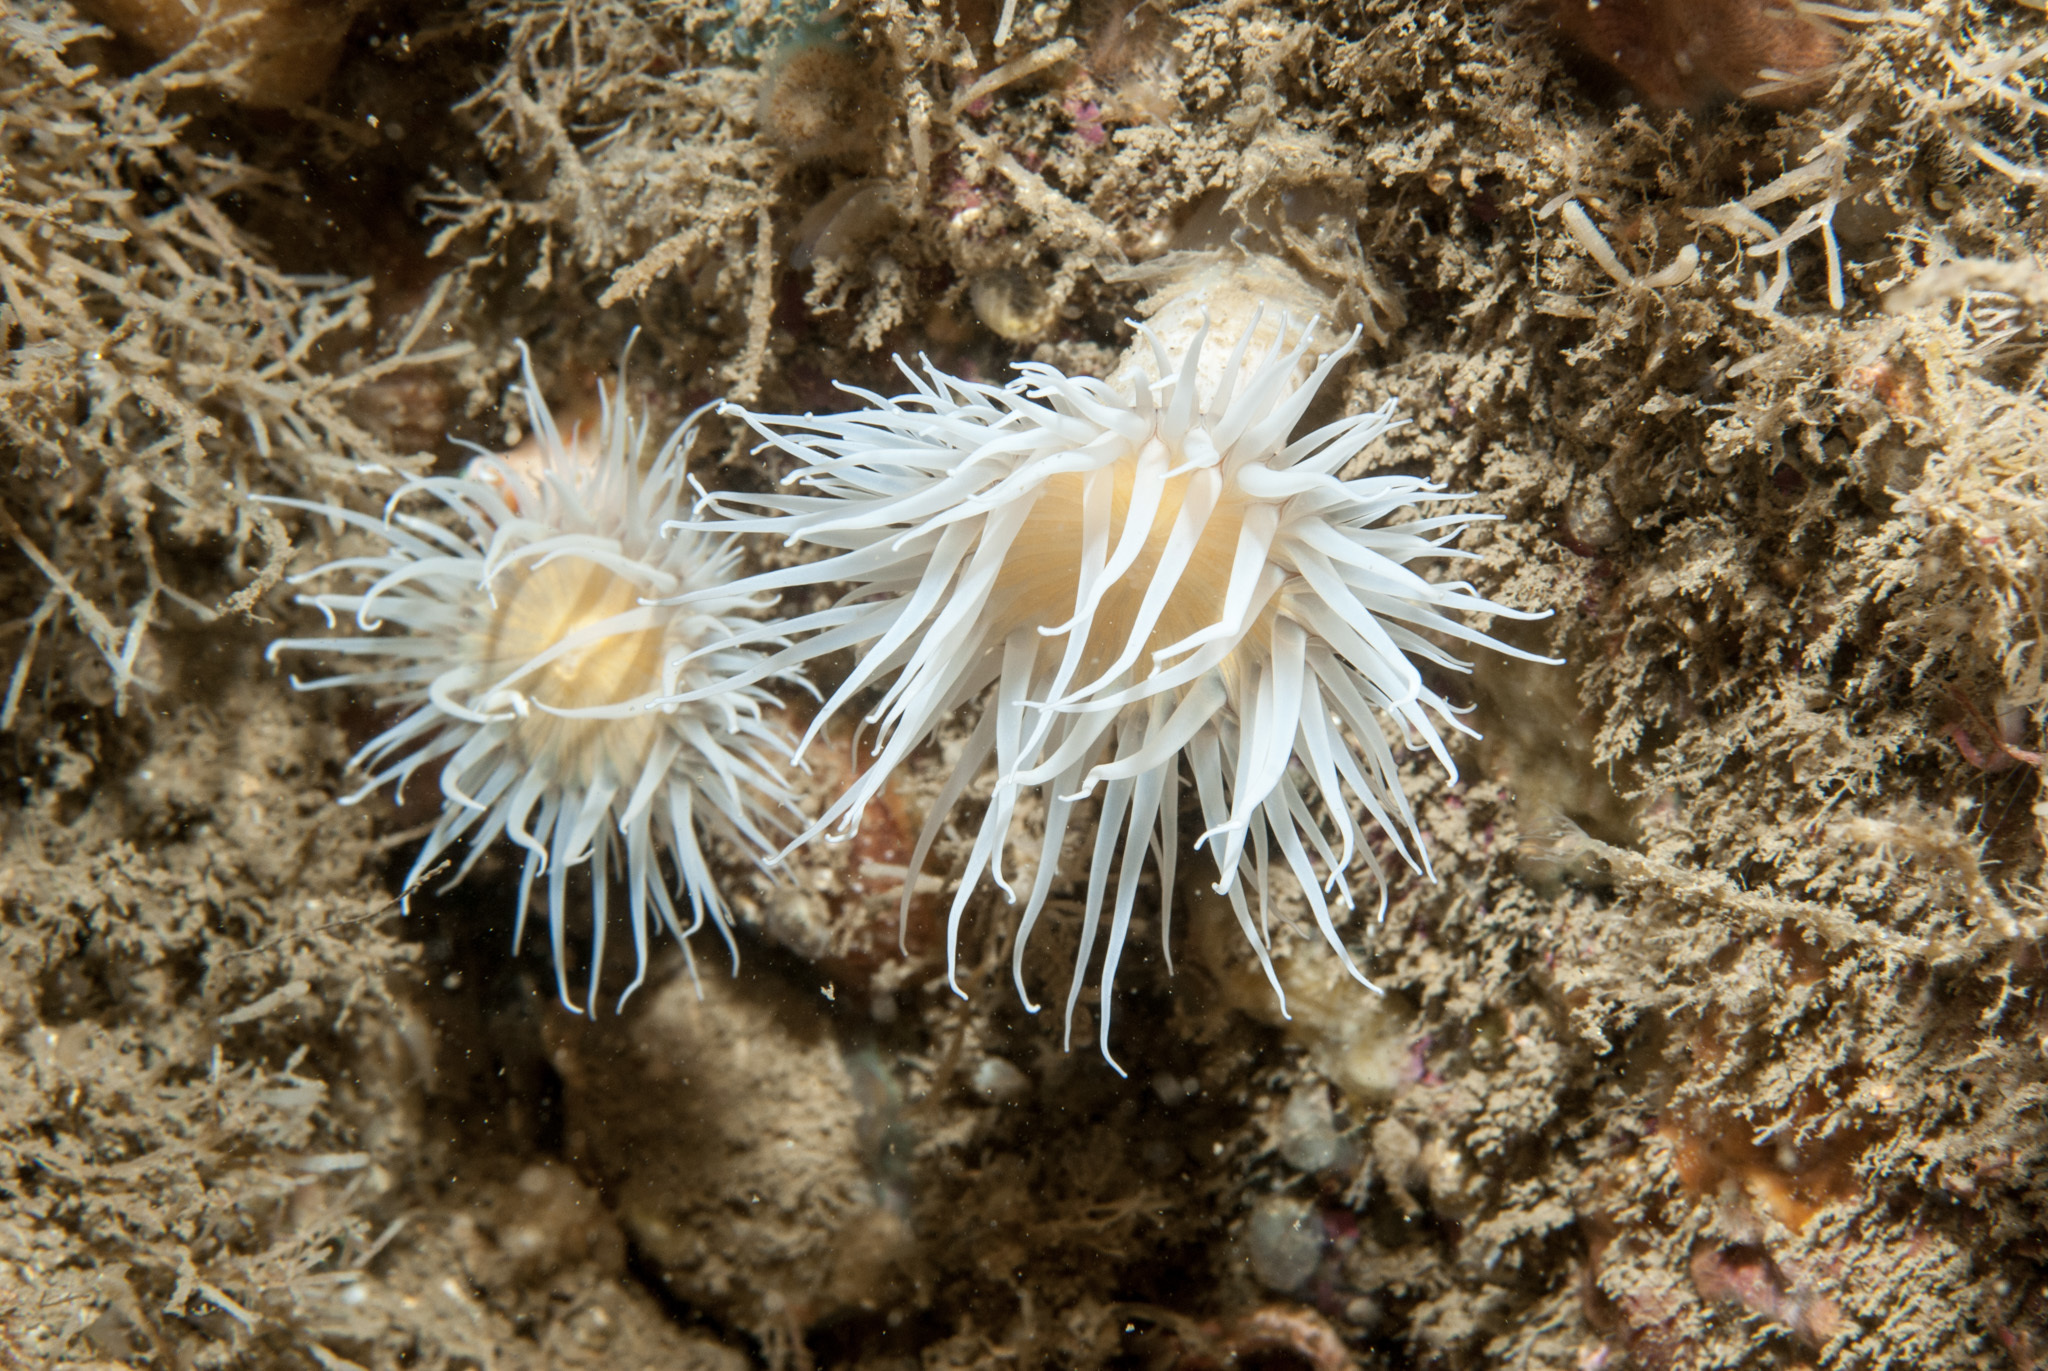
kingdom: Animalia
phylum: Cnidaria
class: Anthozoa
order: Actiniaria
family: Sagartiidae
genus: Actinothoe
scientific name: Actinothoe sphyrodeta
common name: Sandalled anemone
